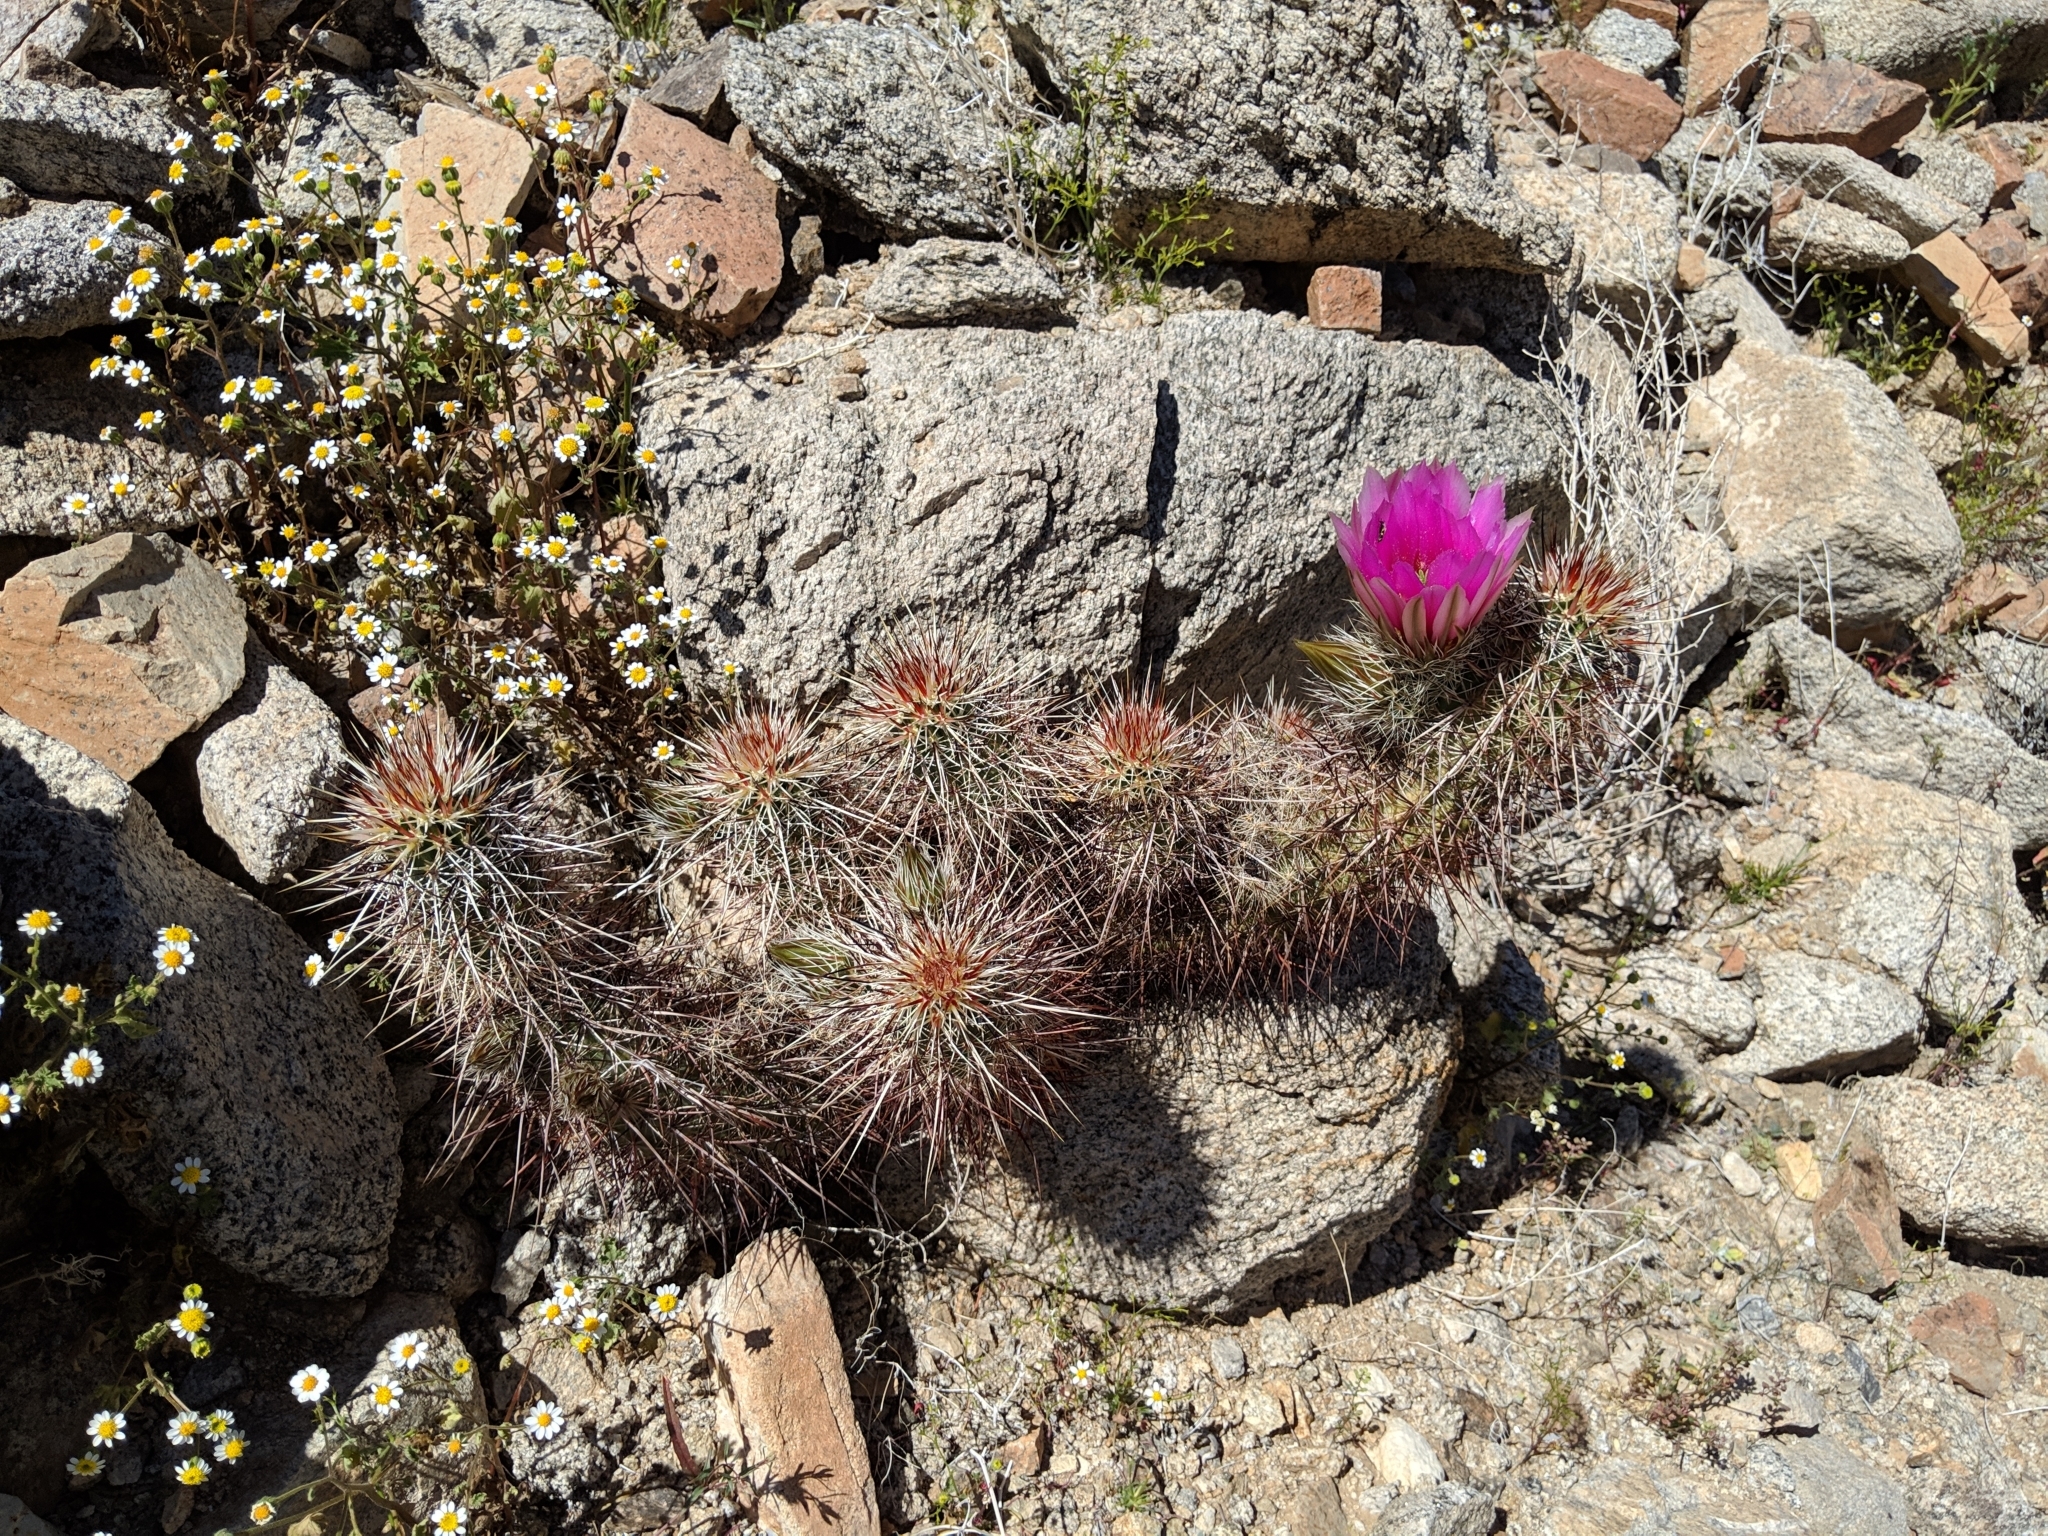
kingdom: Plantae
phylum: Tracheophyta
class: Magnoliopsida
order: Caryophyllales
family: Cactaceae
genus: Echinocereus
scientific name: Echinocereus engelmannii
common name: Engelmann's hedgehog cactus
